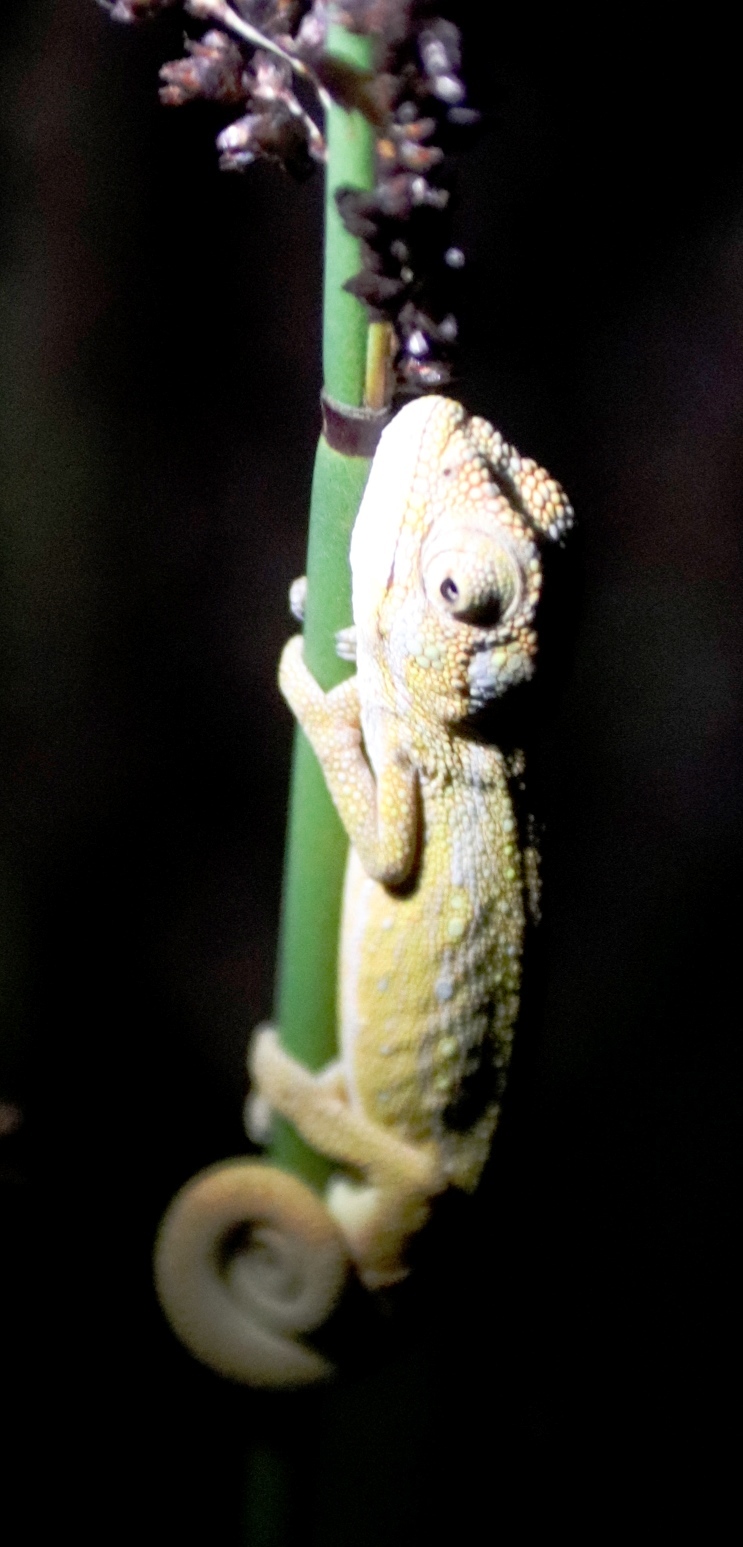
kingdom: Animalia
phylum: Chordata
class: Squamata
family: Chamaeleonidae
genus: Bradypodion
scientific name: Bradypodion pumilum
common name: Cape dwarf chameleon
